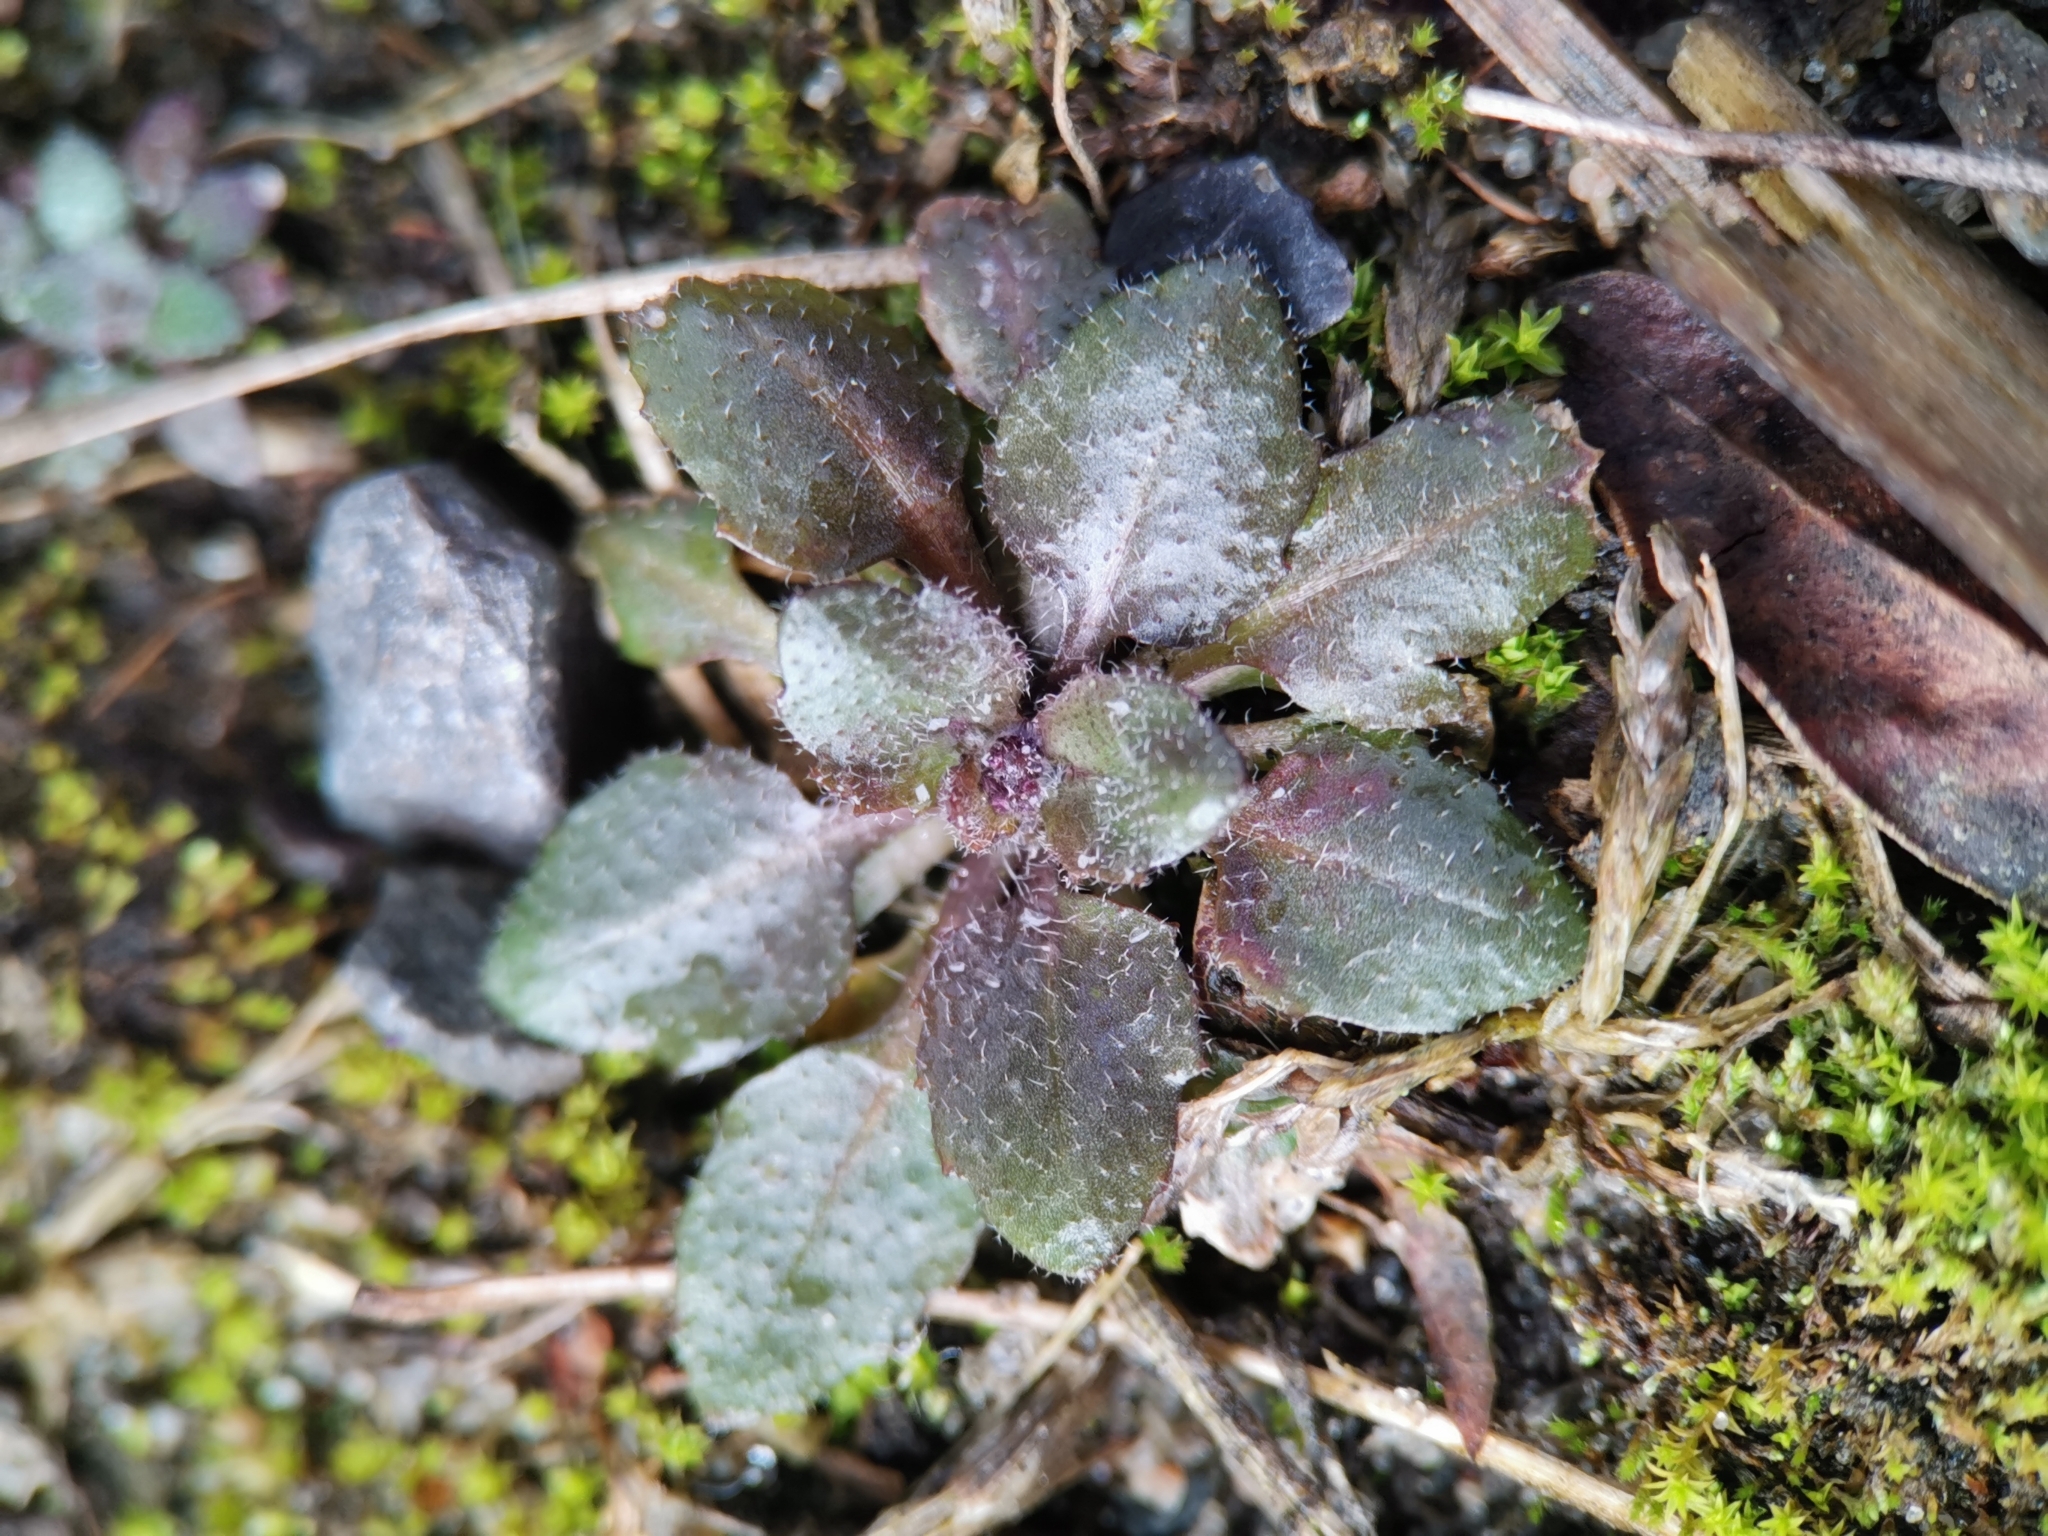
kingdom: Plantae
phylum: Tracheophyta
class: Magnoliopsida
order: Brassicales
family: Brassicaceae
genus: Arabidopsis
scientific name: Arabidopsis thaliana
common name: Thale cress
